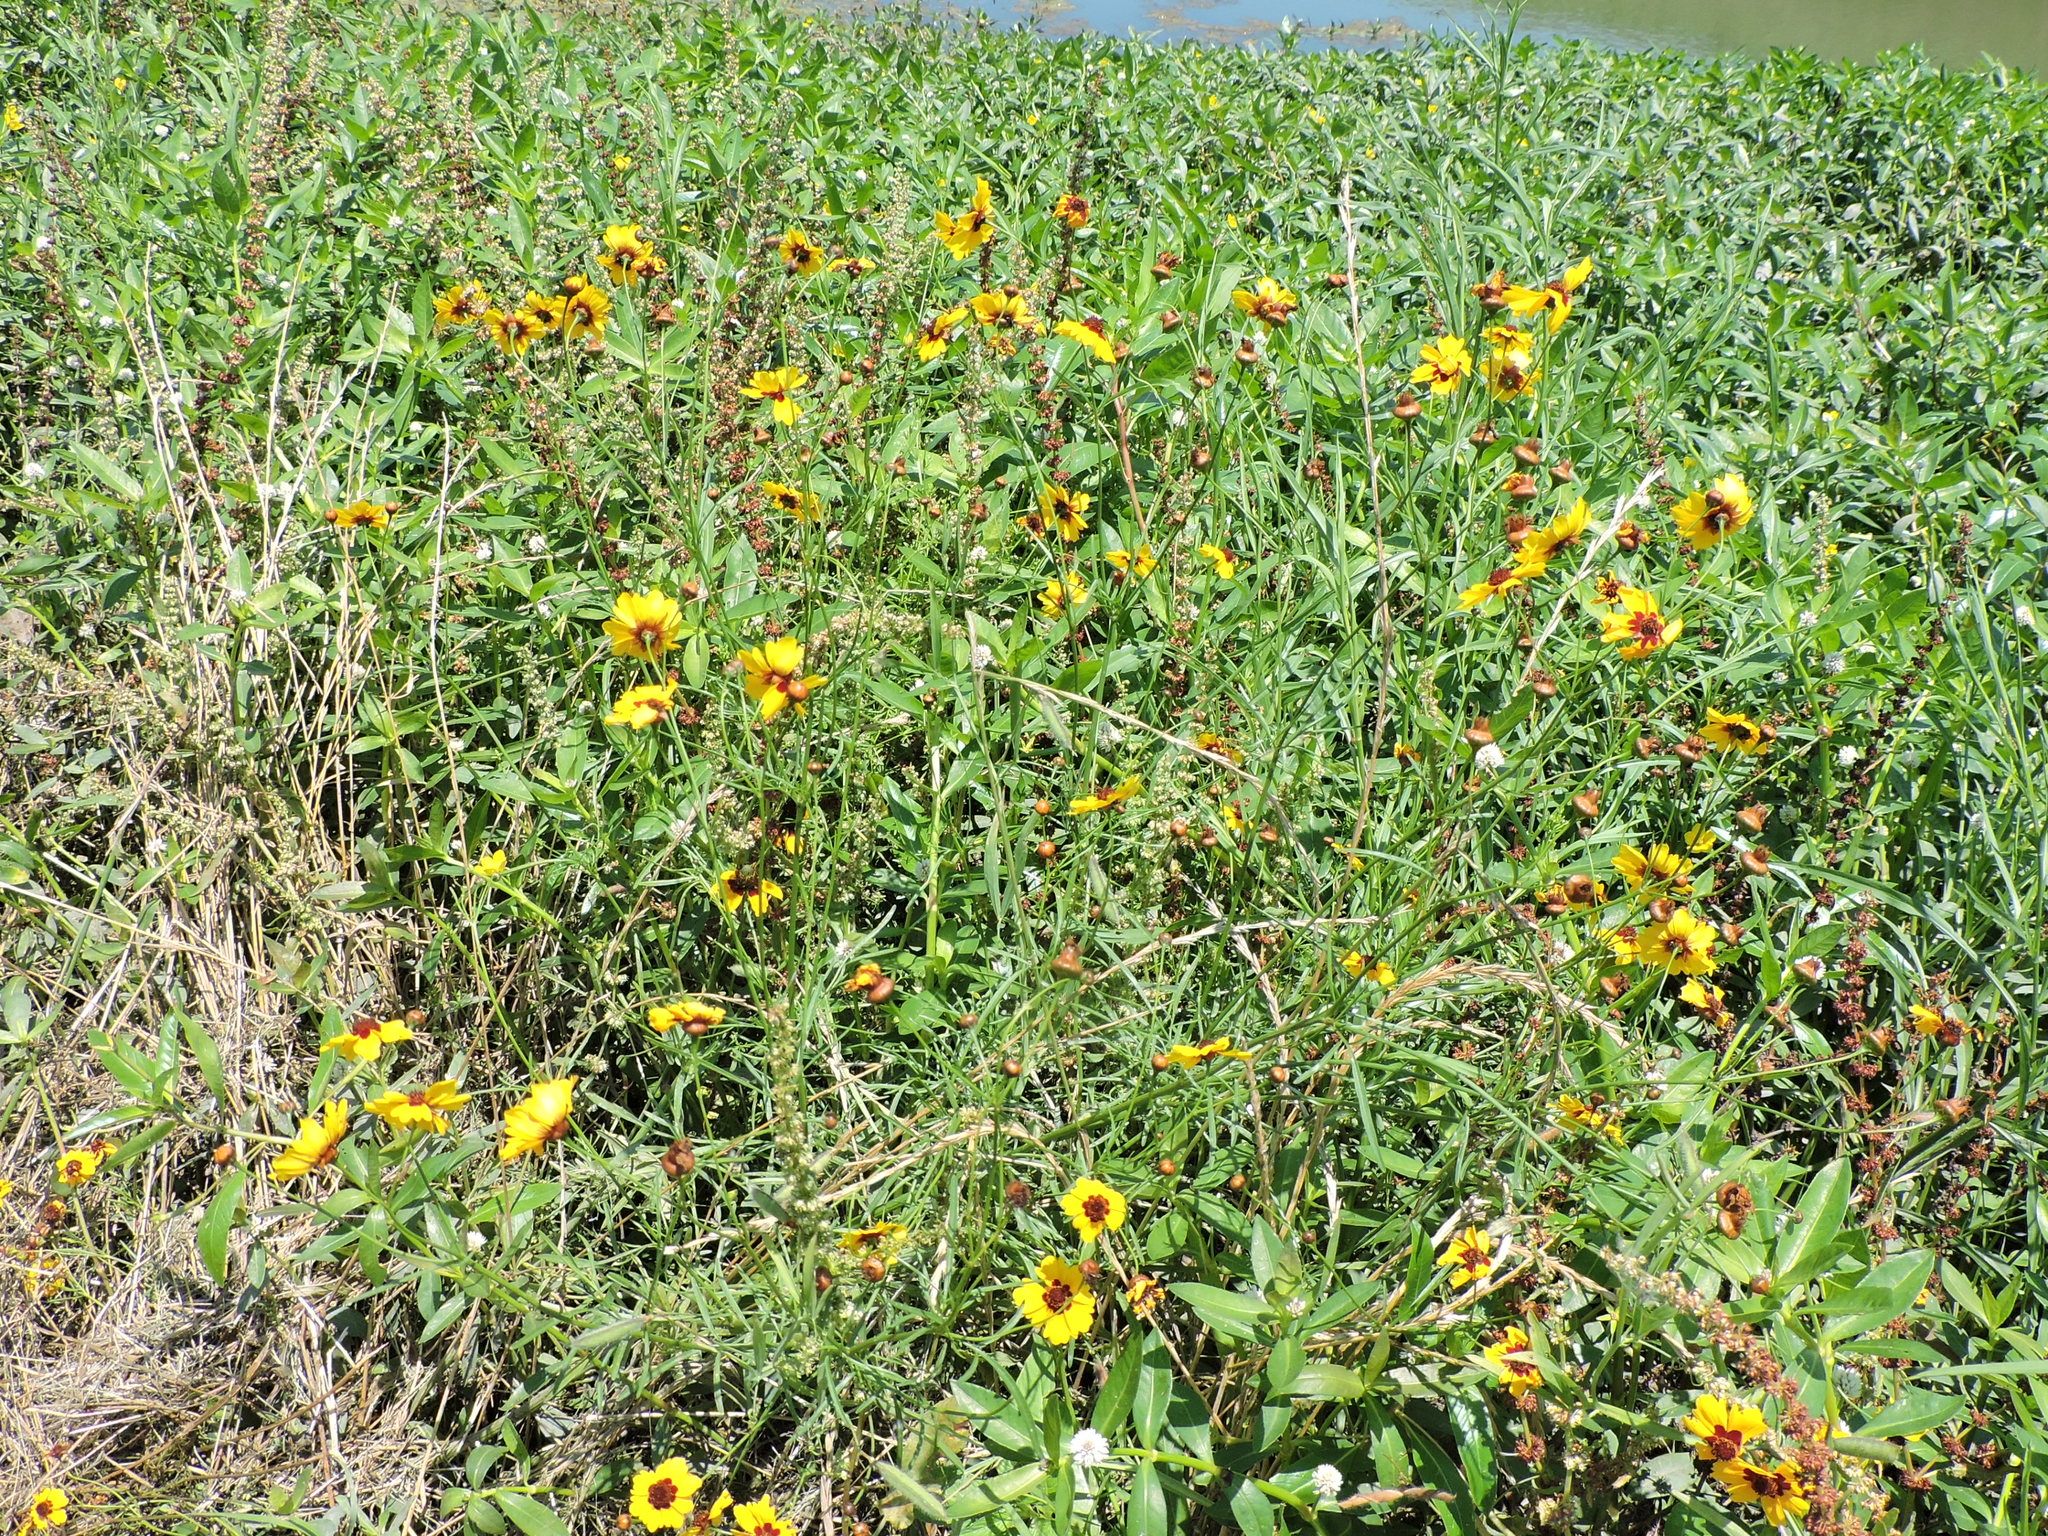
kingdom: Plantae
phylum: Tracheophyta
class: Magnoliopsida
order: Asterales
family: Asteraceae
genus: Coreopsis
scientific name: Coreopsis tinctoria
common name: Garden tickseed
